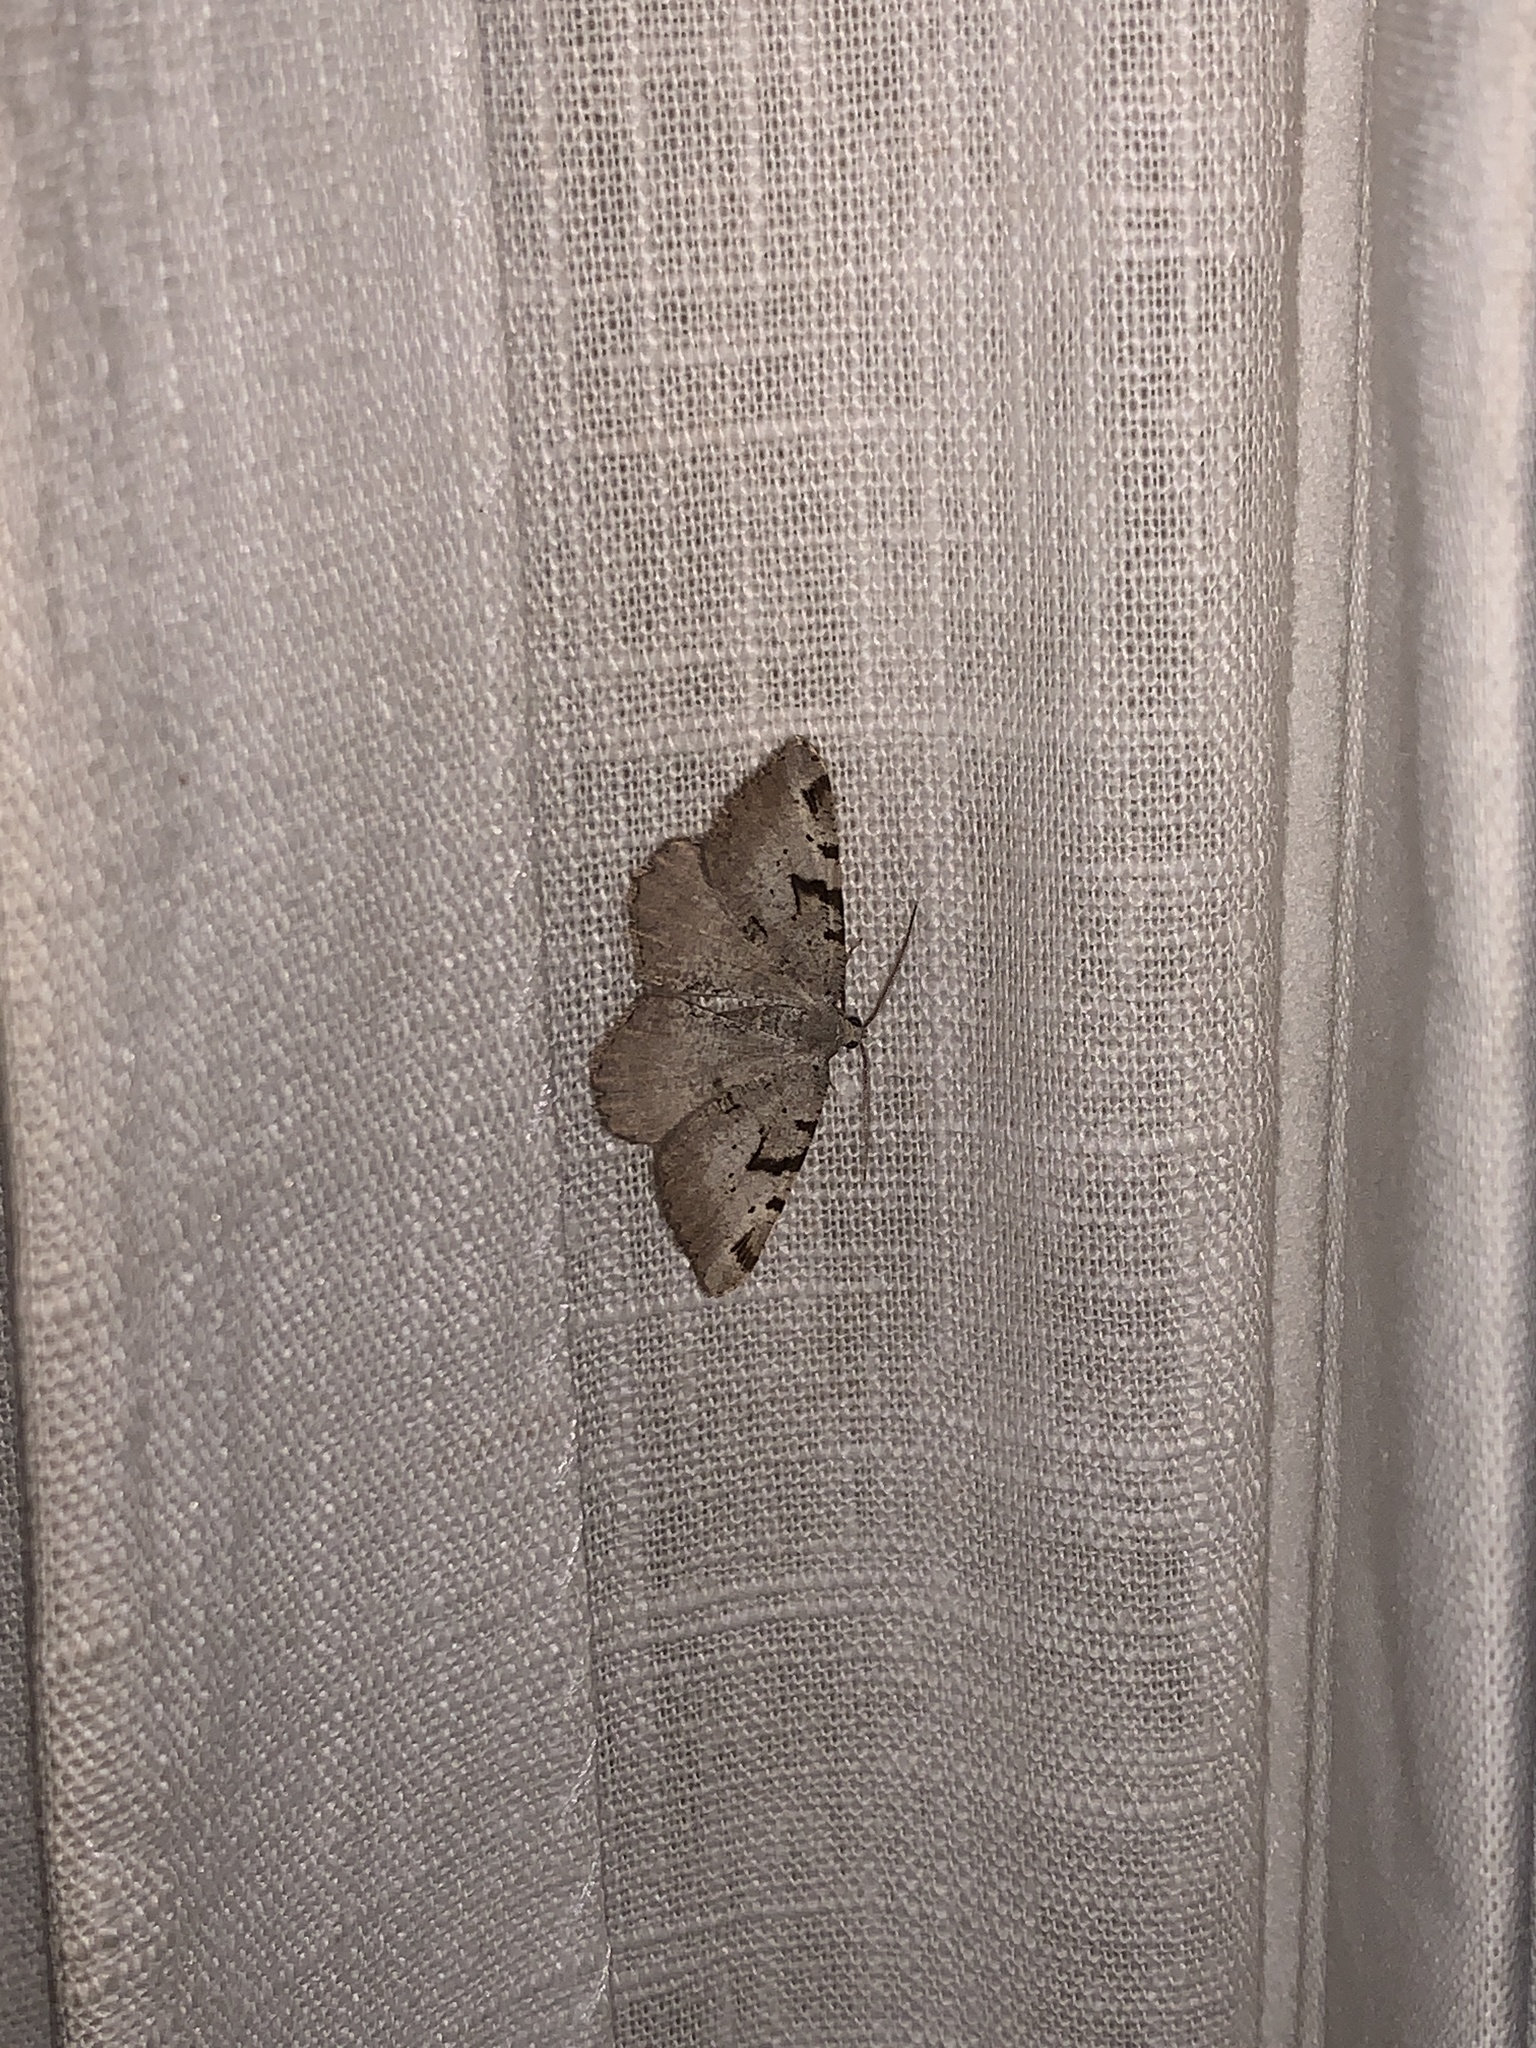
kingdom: Animalia
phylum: Arthropoda
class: Insecta
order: Lepidoptera
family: Geometridae
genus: Macaria
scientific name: Macaria wauaria
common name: V-moth
